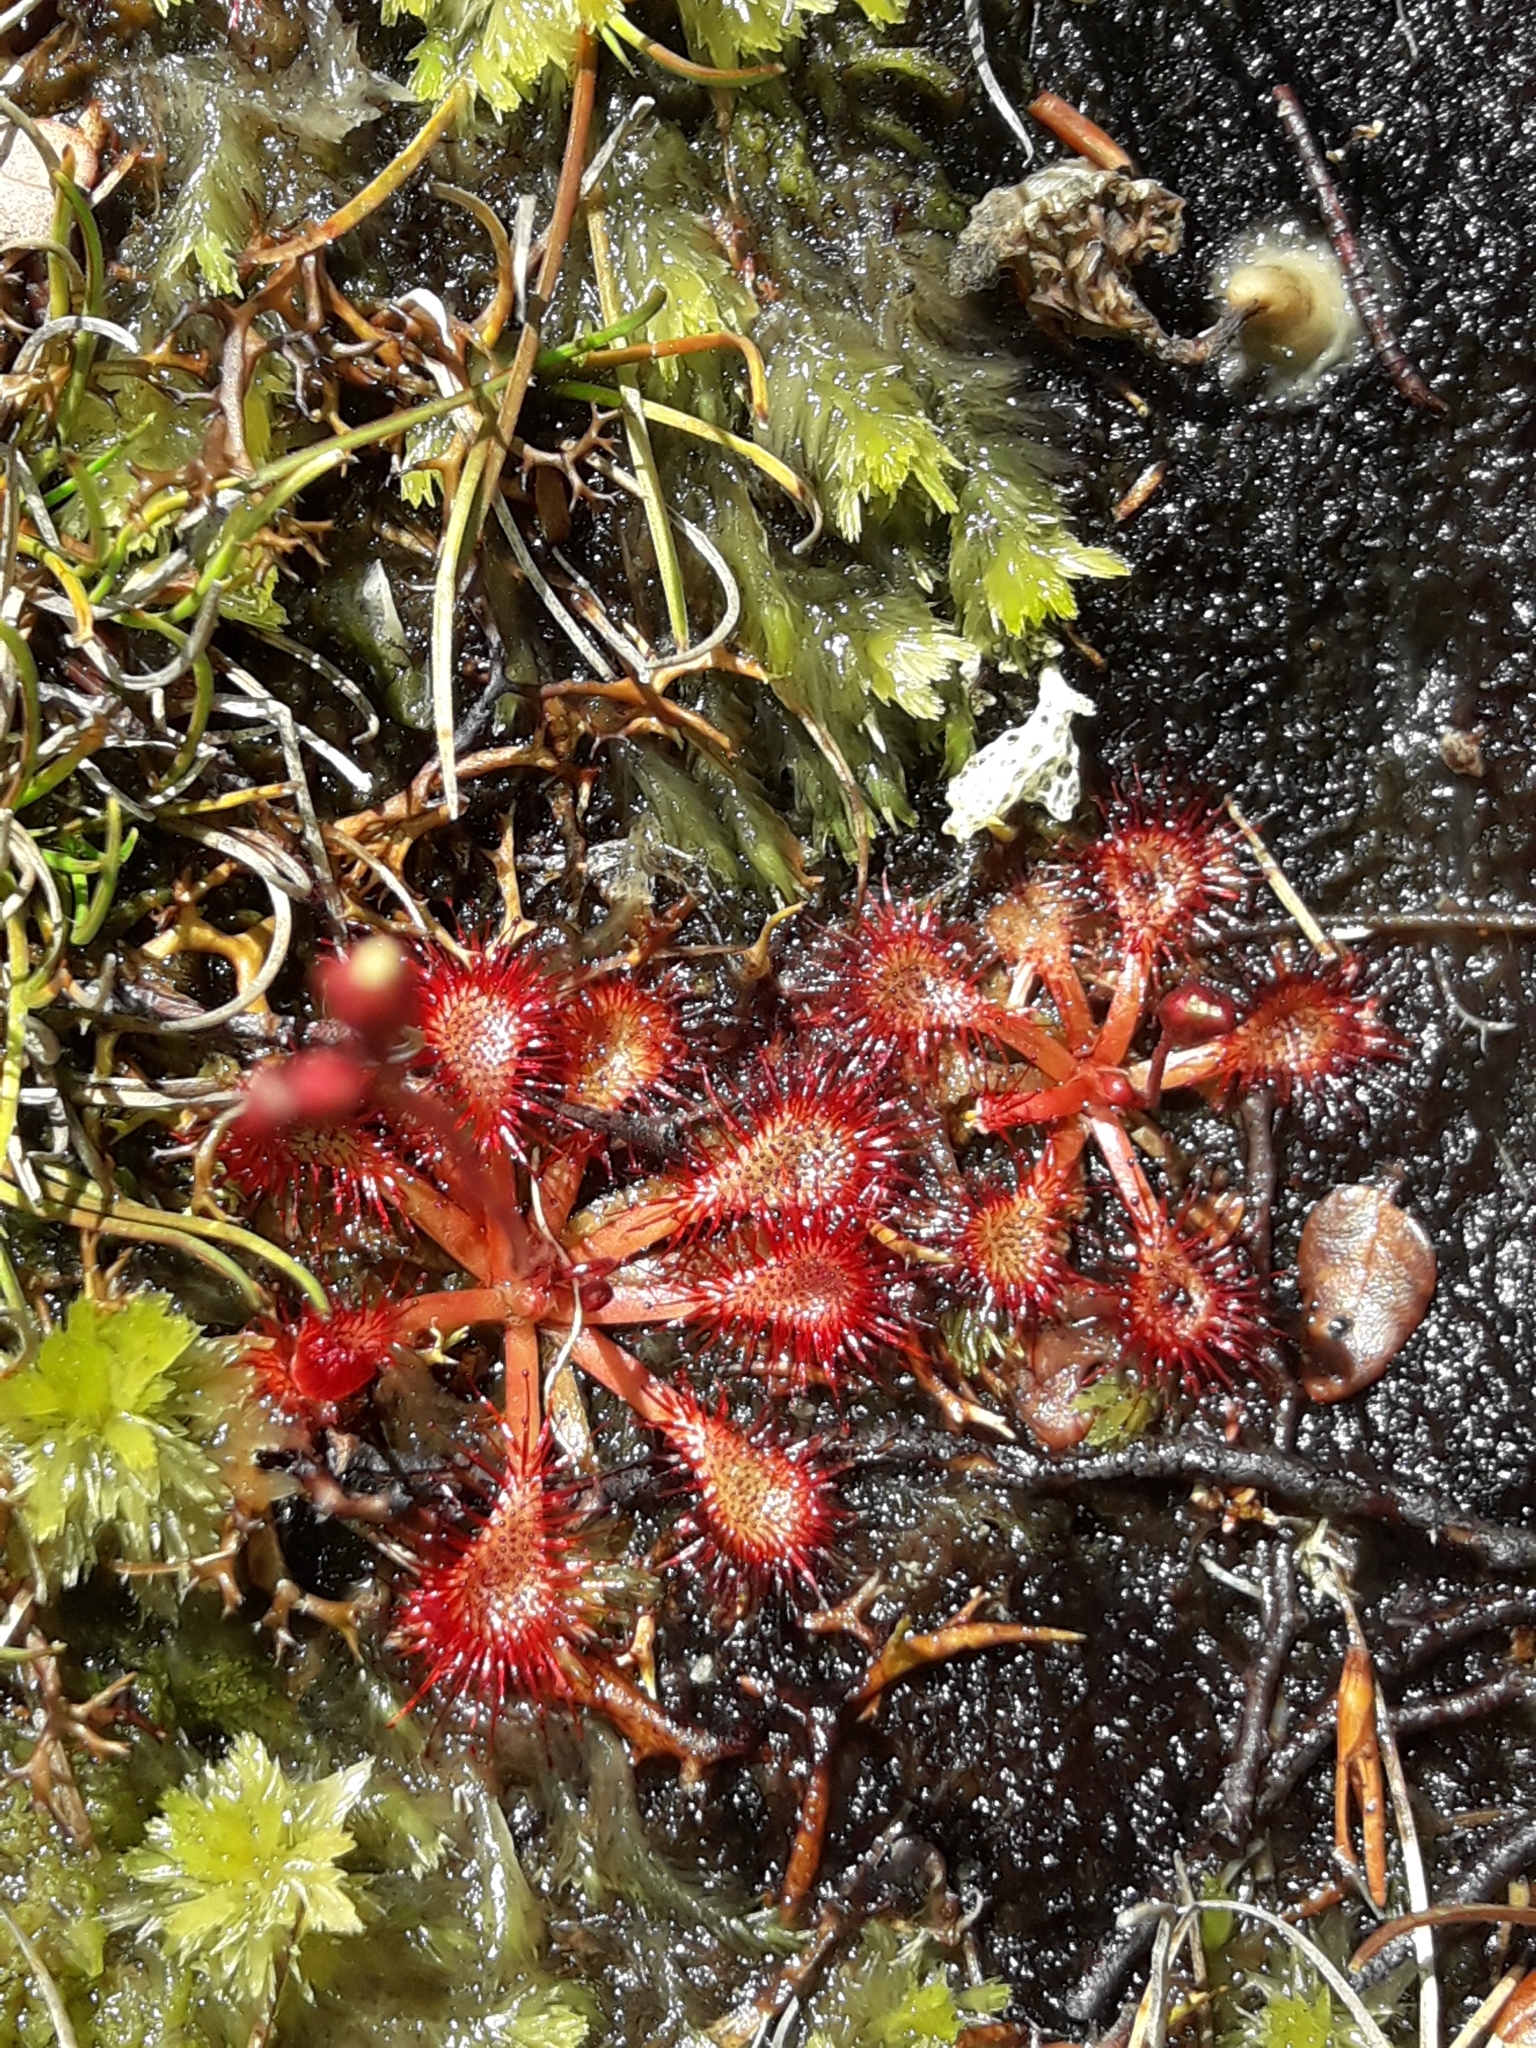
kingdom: Plantae
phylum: Tracheophyta
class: Magnoliopsida
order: Caryophyllales
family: Droseraceae
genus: Drosera
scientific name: Drosera spatulata
